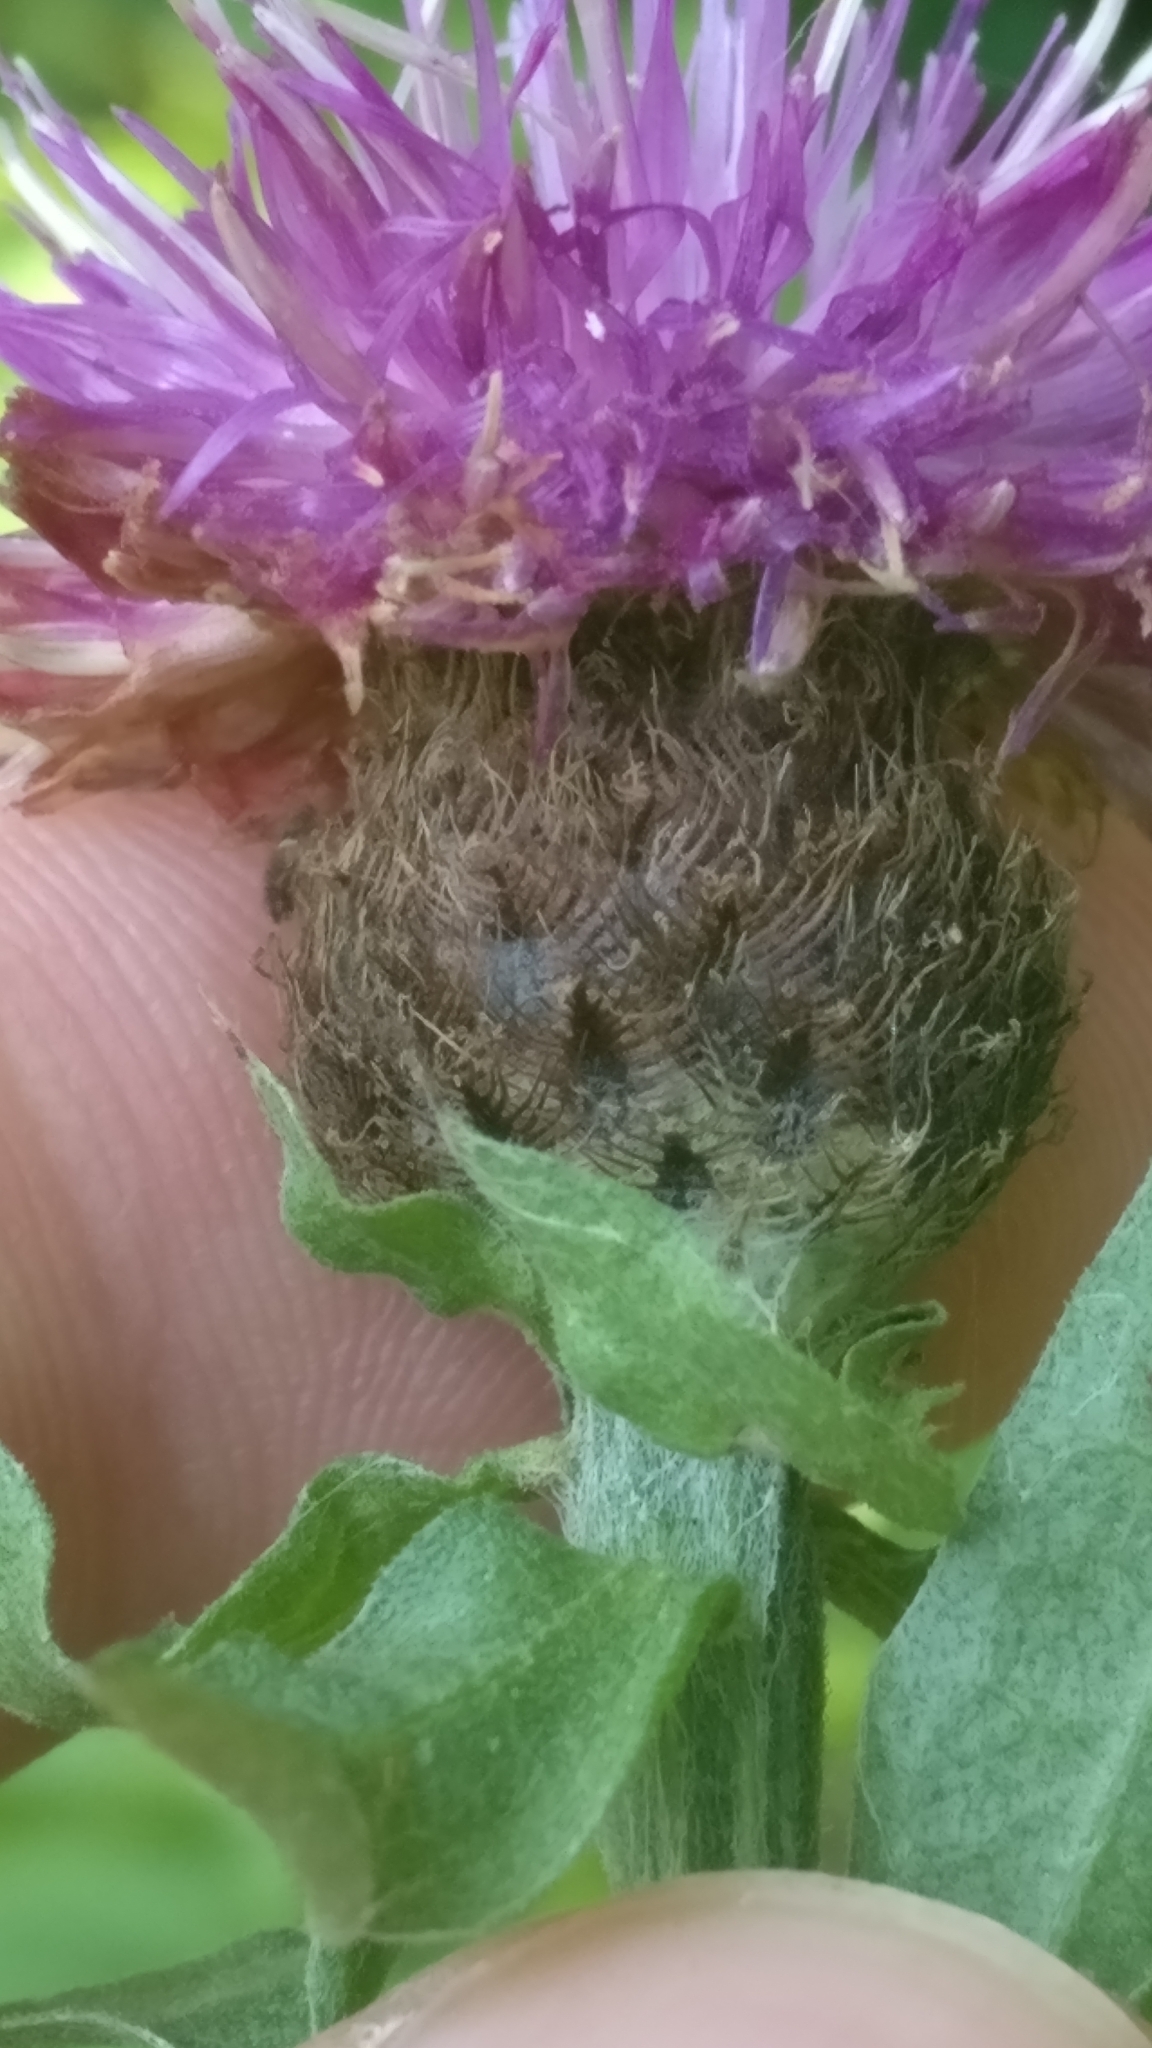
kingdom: Plantae
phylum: Tracheophyta
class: Magnoliopsida
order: Asterales
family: Asteraceae
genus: Centaurea
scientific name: Centaurea jacea
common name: Brown knapweed
